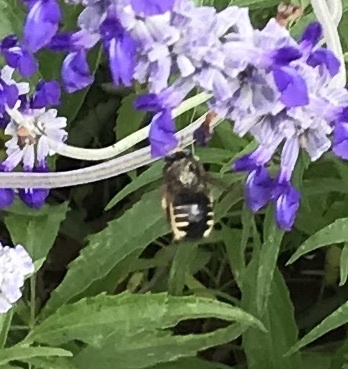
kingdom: Animalia
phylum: Arthropoda
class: Insecta
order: Hymenoptera
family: Apidae
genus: Xylocopa
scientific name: Xylocopa tabaniformis
